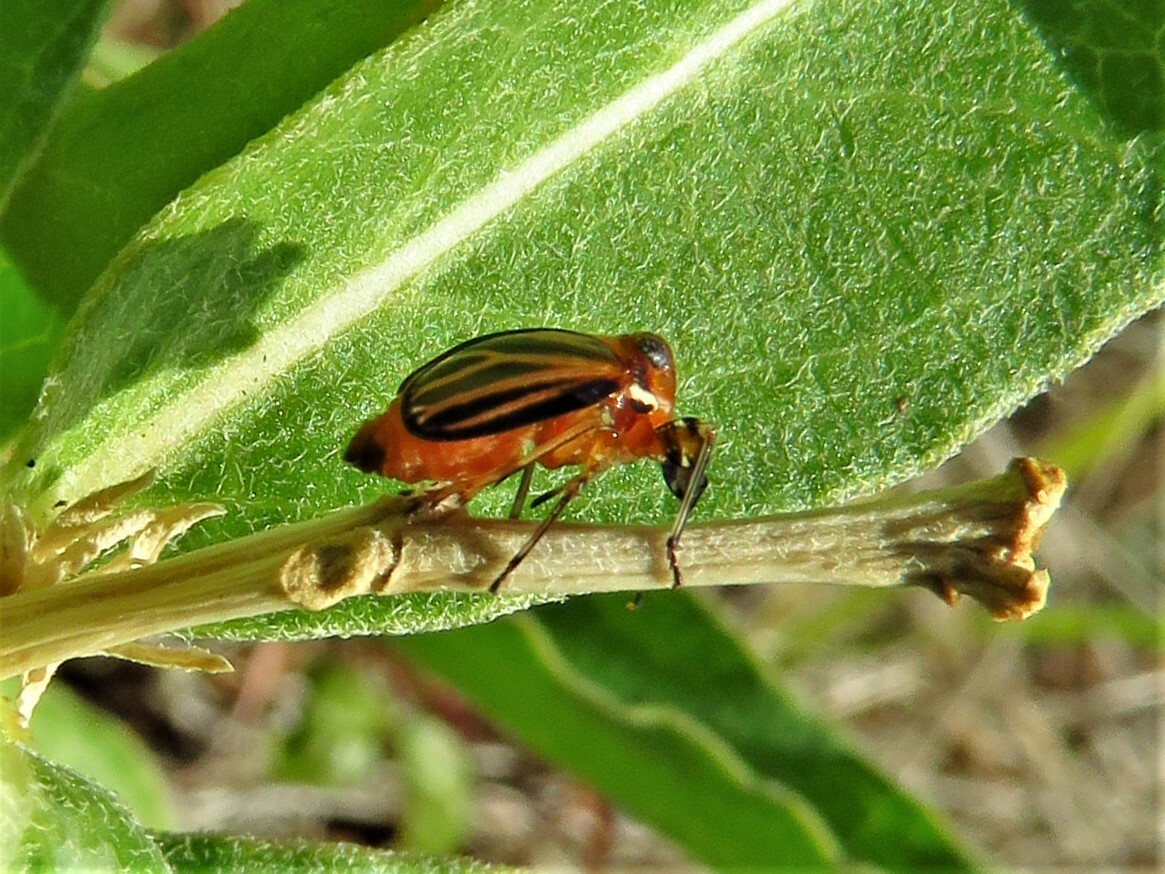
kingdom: Animalia
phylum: Arthropoda
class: Insecta
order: Hemiptera
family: Achilidae
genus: Isodaemon
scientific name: Isodaemon orontes
